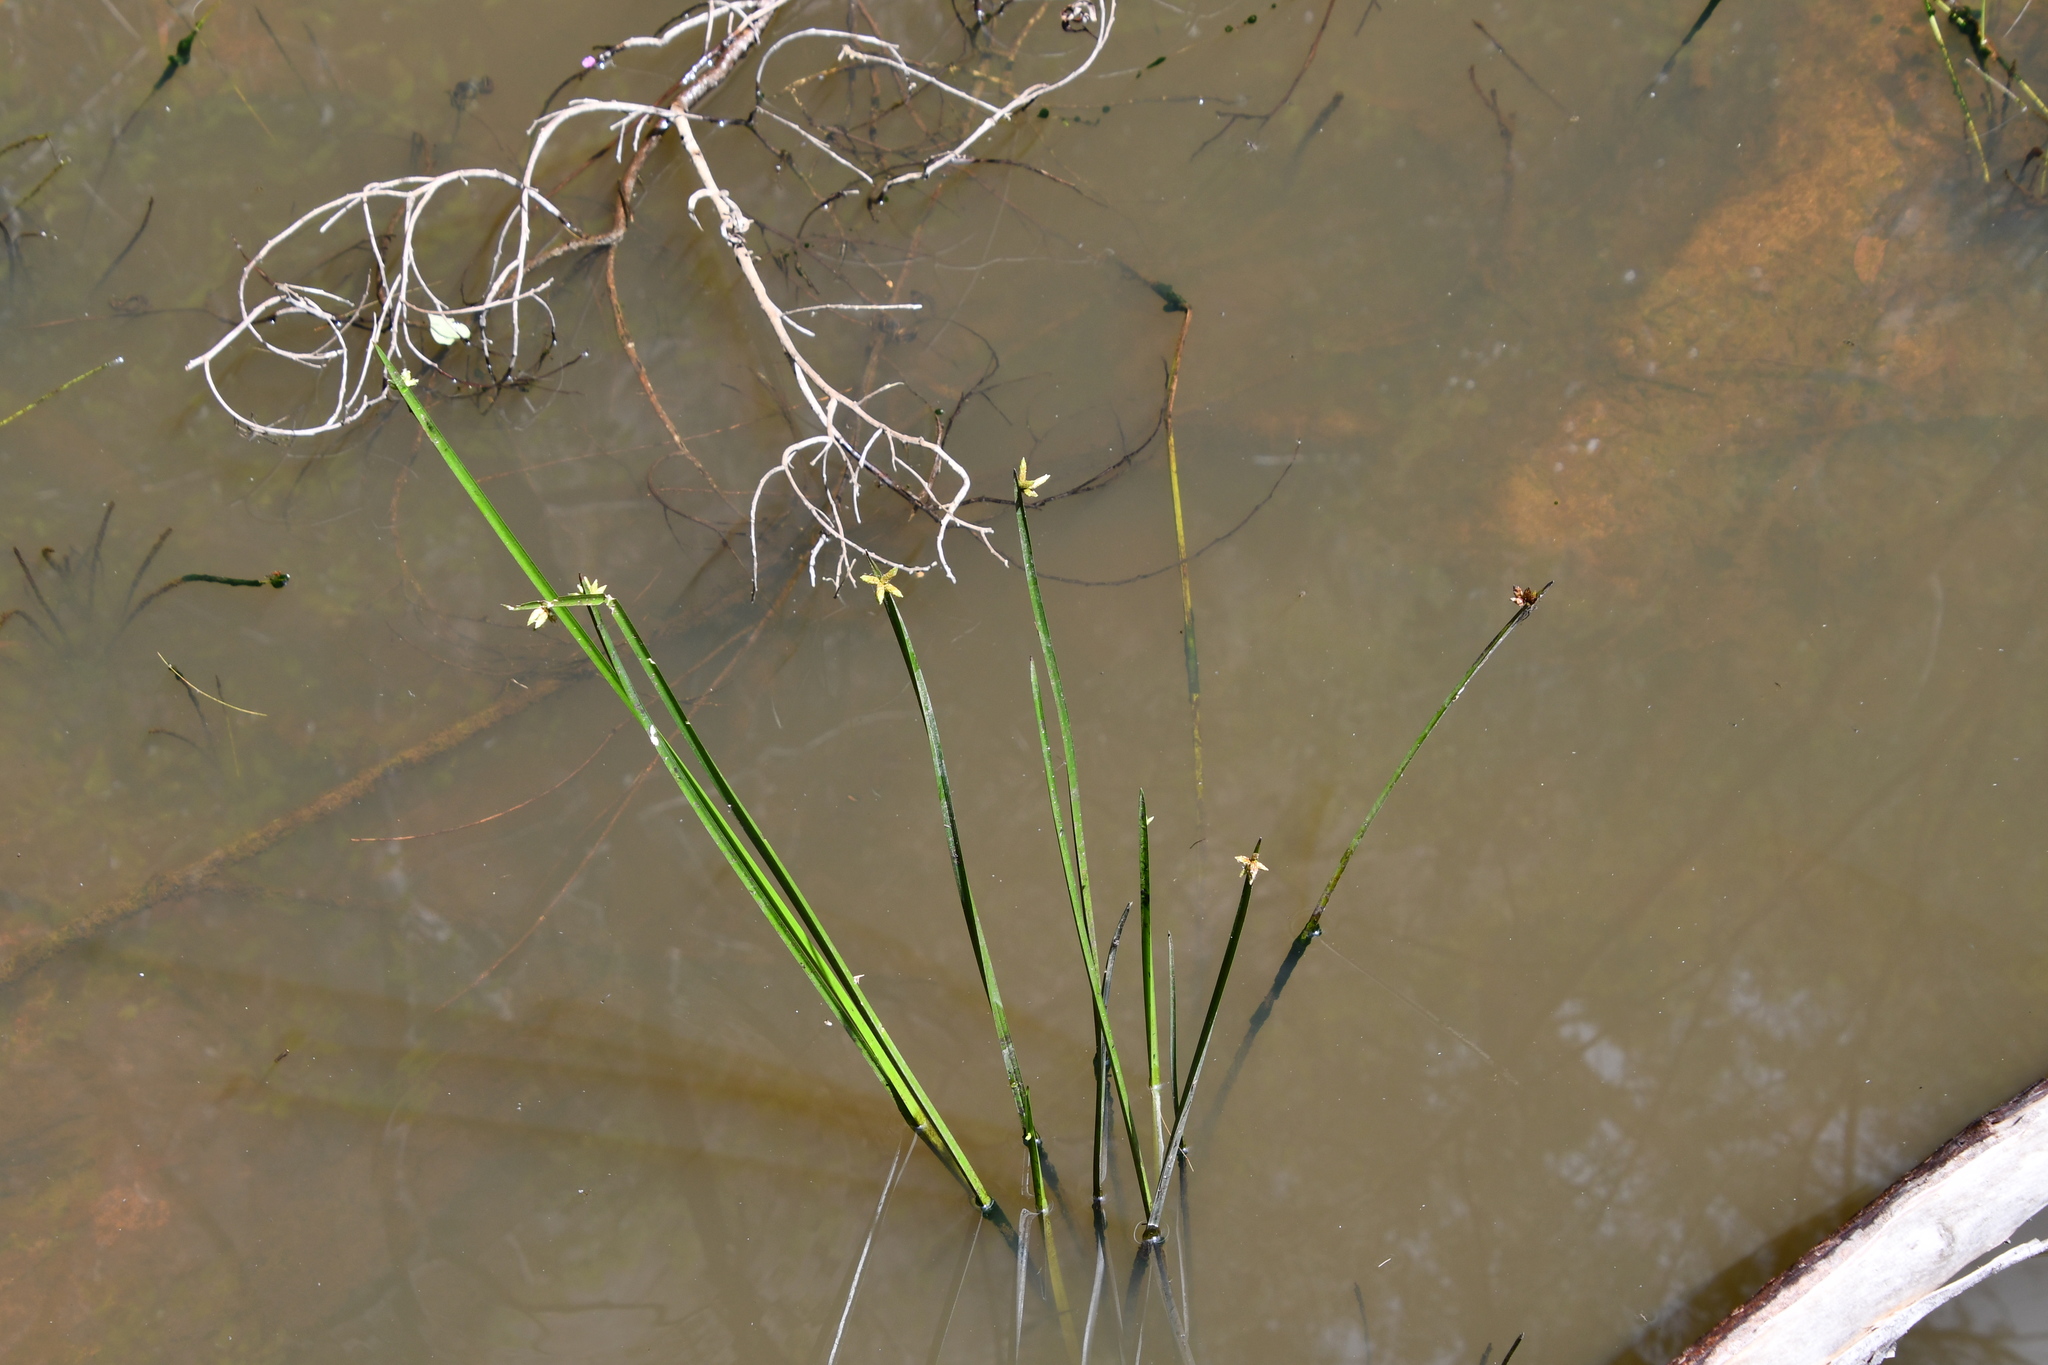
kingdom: Plantae
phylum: Tracheophyta
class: Liliopsida
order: Poales
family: Cyperaceae
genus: Schoenoplectiella
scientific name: Schoenoplectiella mucronata
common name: Bog bulrush
